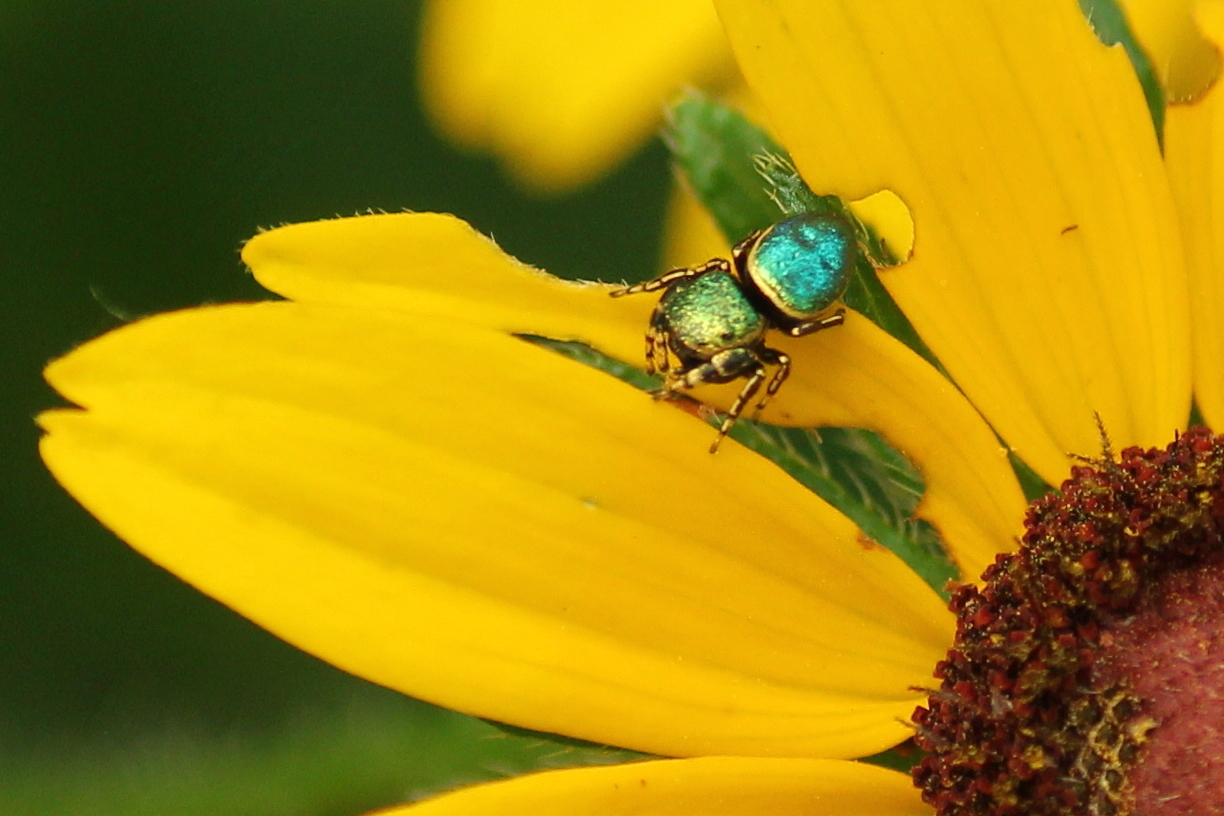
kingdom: Animalia
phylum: Arthropoda
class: Arachnida
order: Araneae
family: Salticidae
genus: Sassacus
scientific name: Sassacus papenhoei
